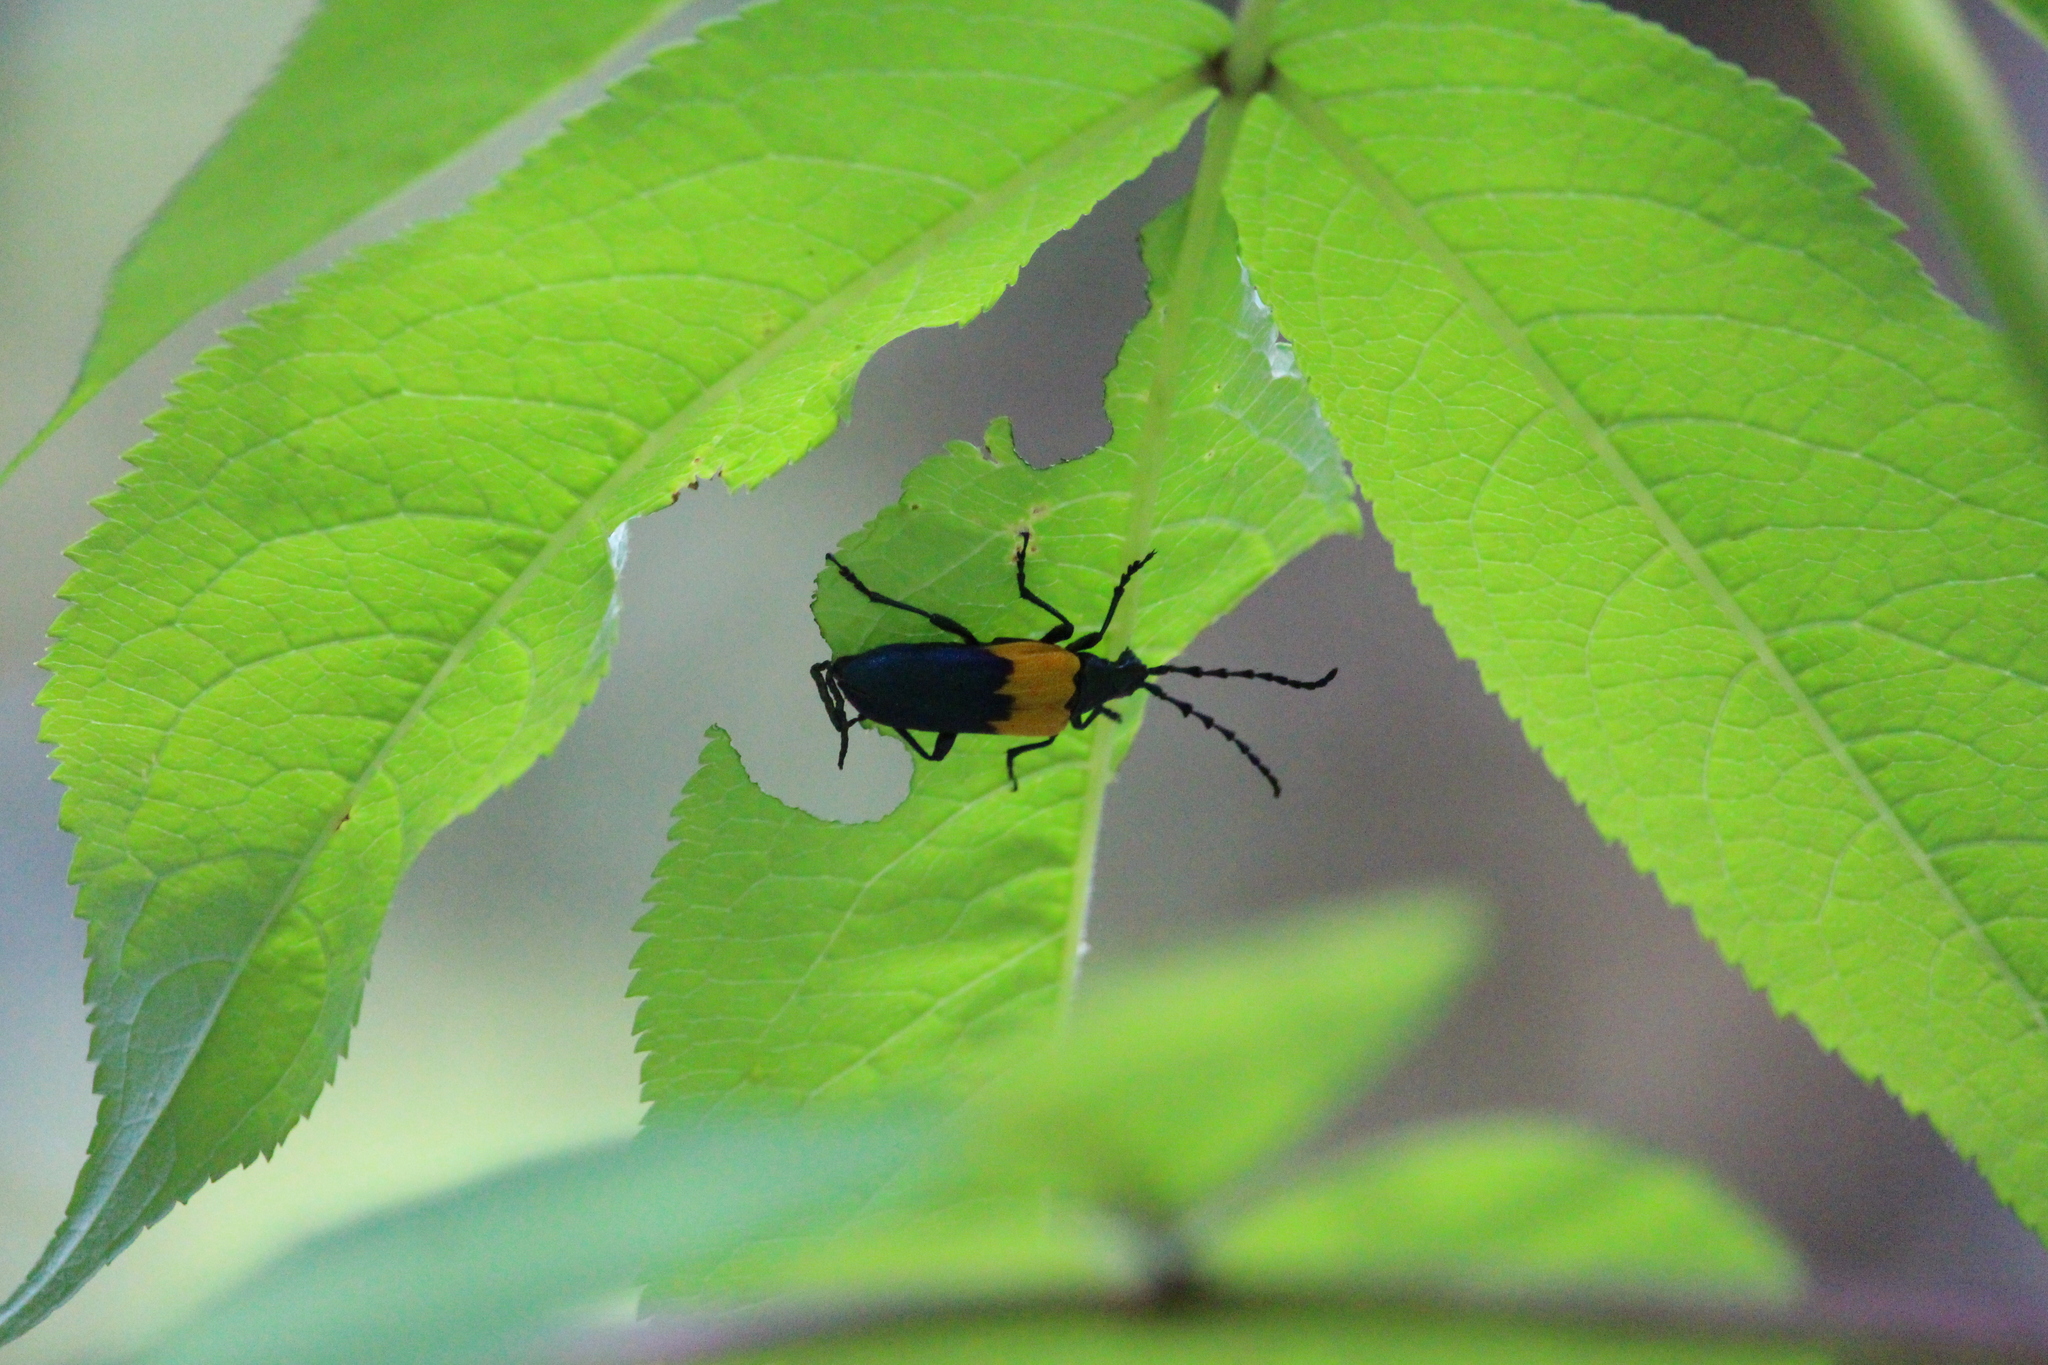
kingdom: Animalia
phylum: Arthropoda
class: Insecta
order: Coleoptera
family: Cerambycidae
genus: Desmocerus
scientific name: Desmocerus palliatus
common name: Eastern elderberry borer
